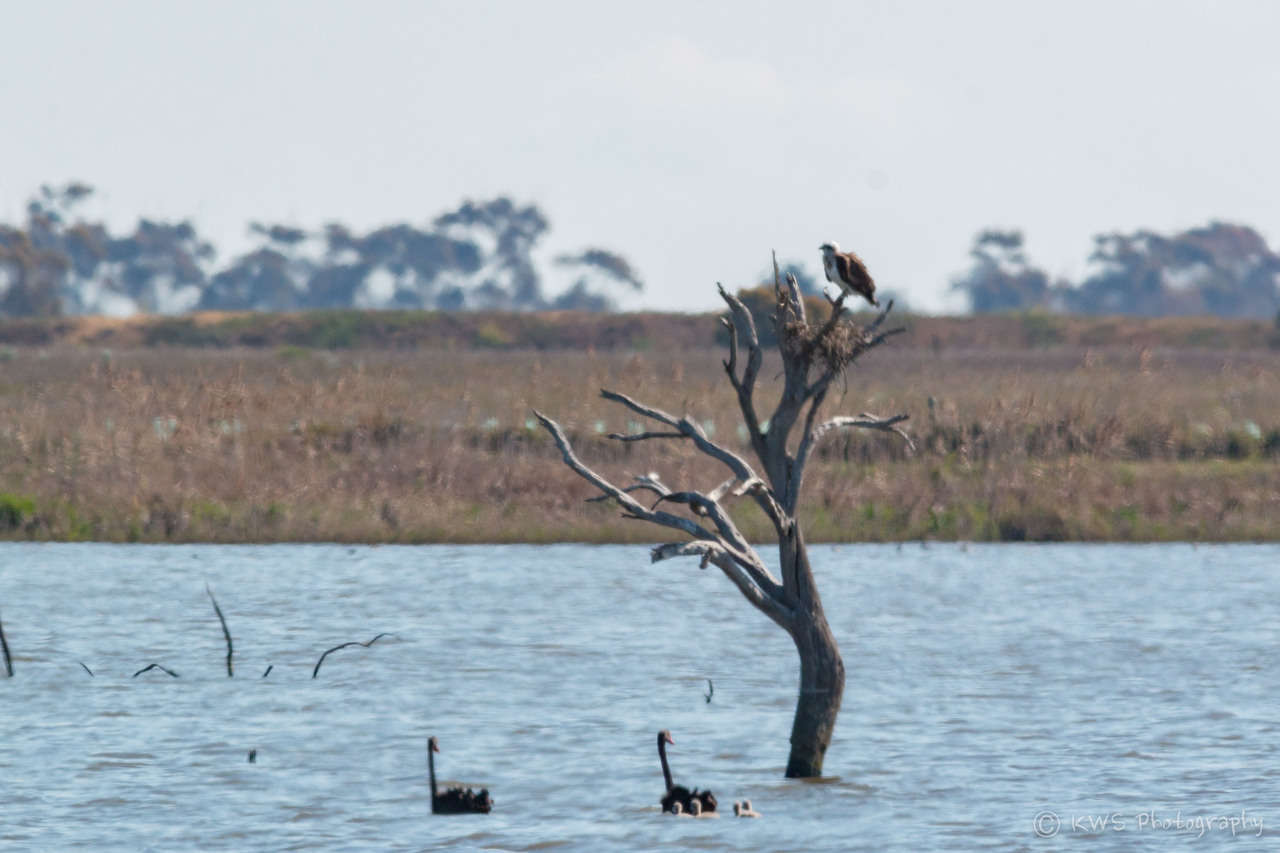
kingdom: Animalia
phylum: Chordata
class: Aves
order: Accipitriformes
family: Pandionidae
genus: Pandion
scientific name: Pandion cristatus
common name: Eastern osprey
